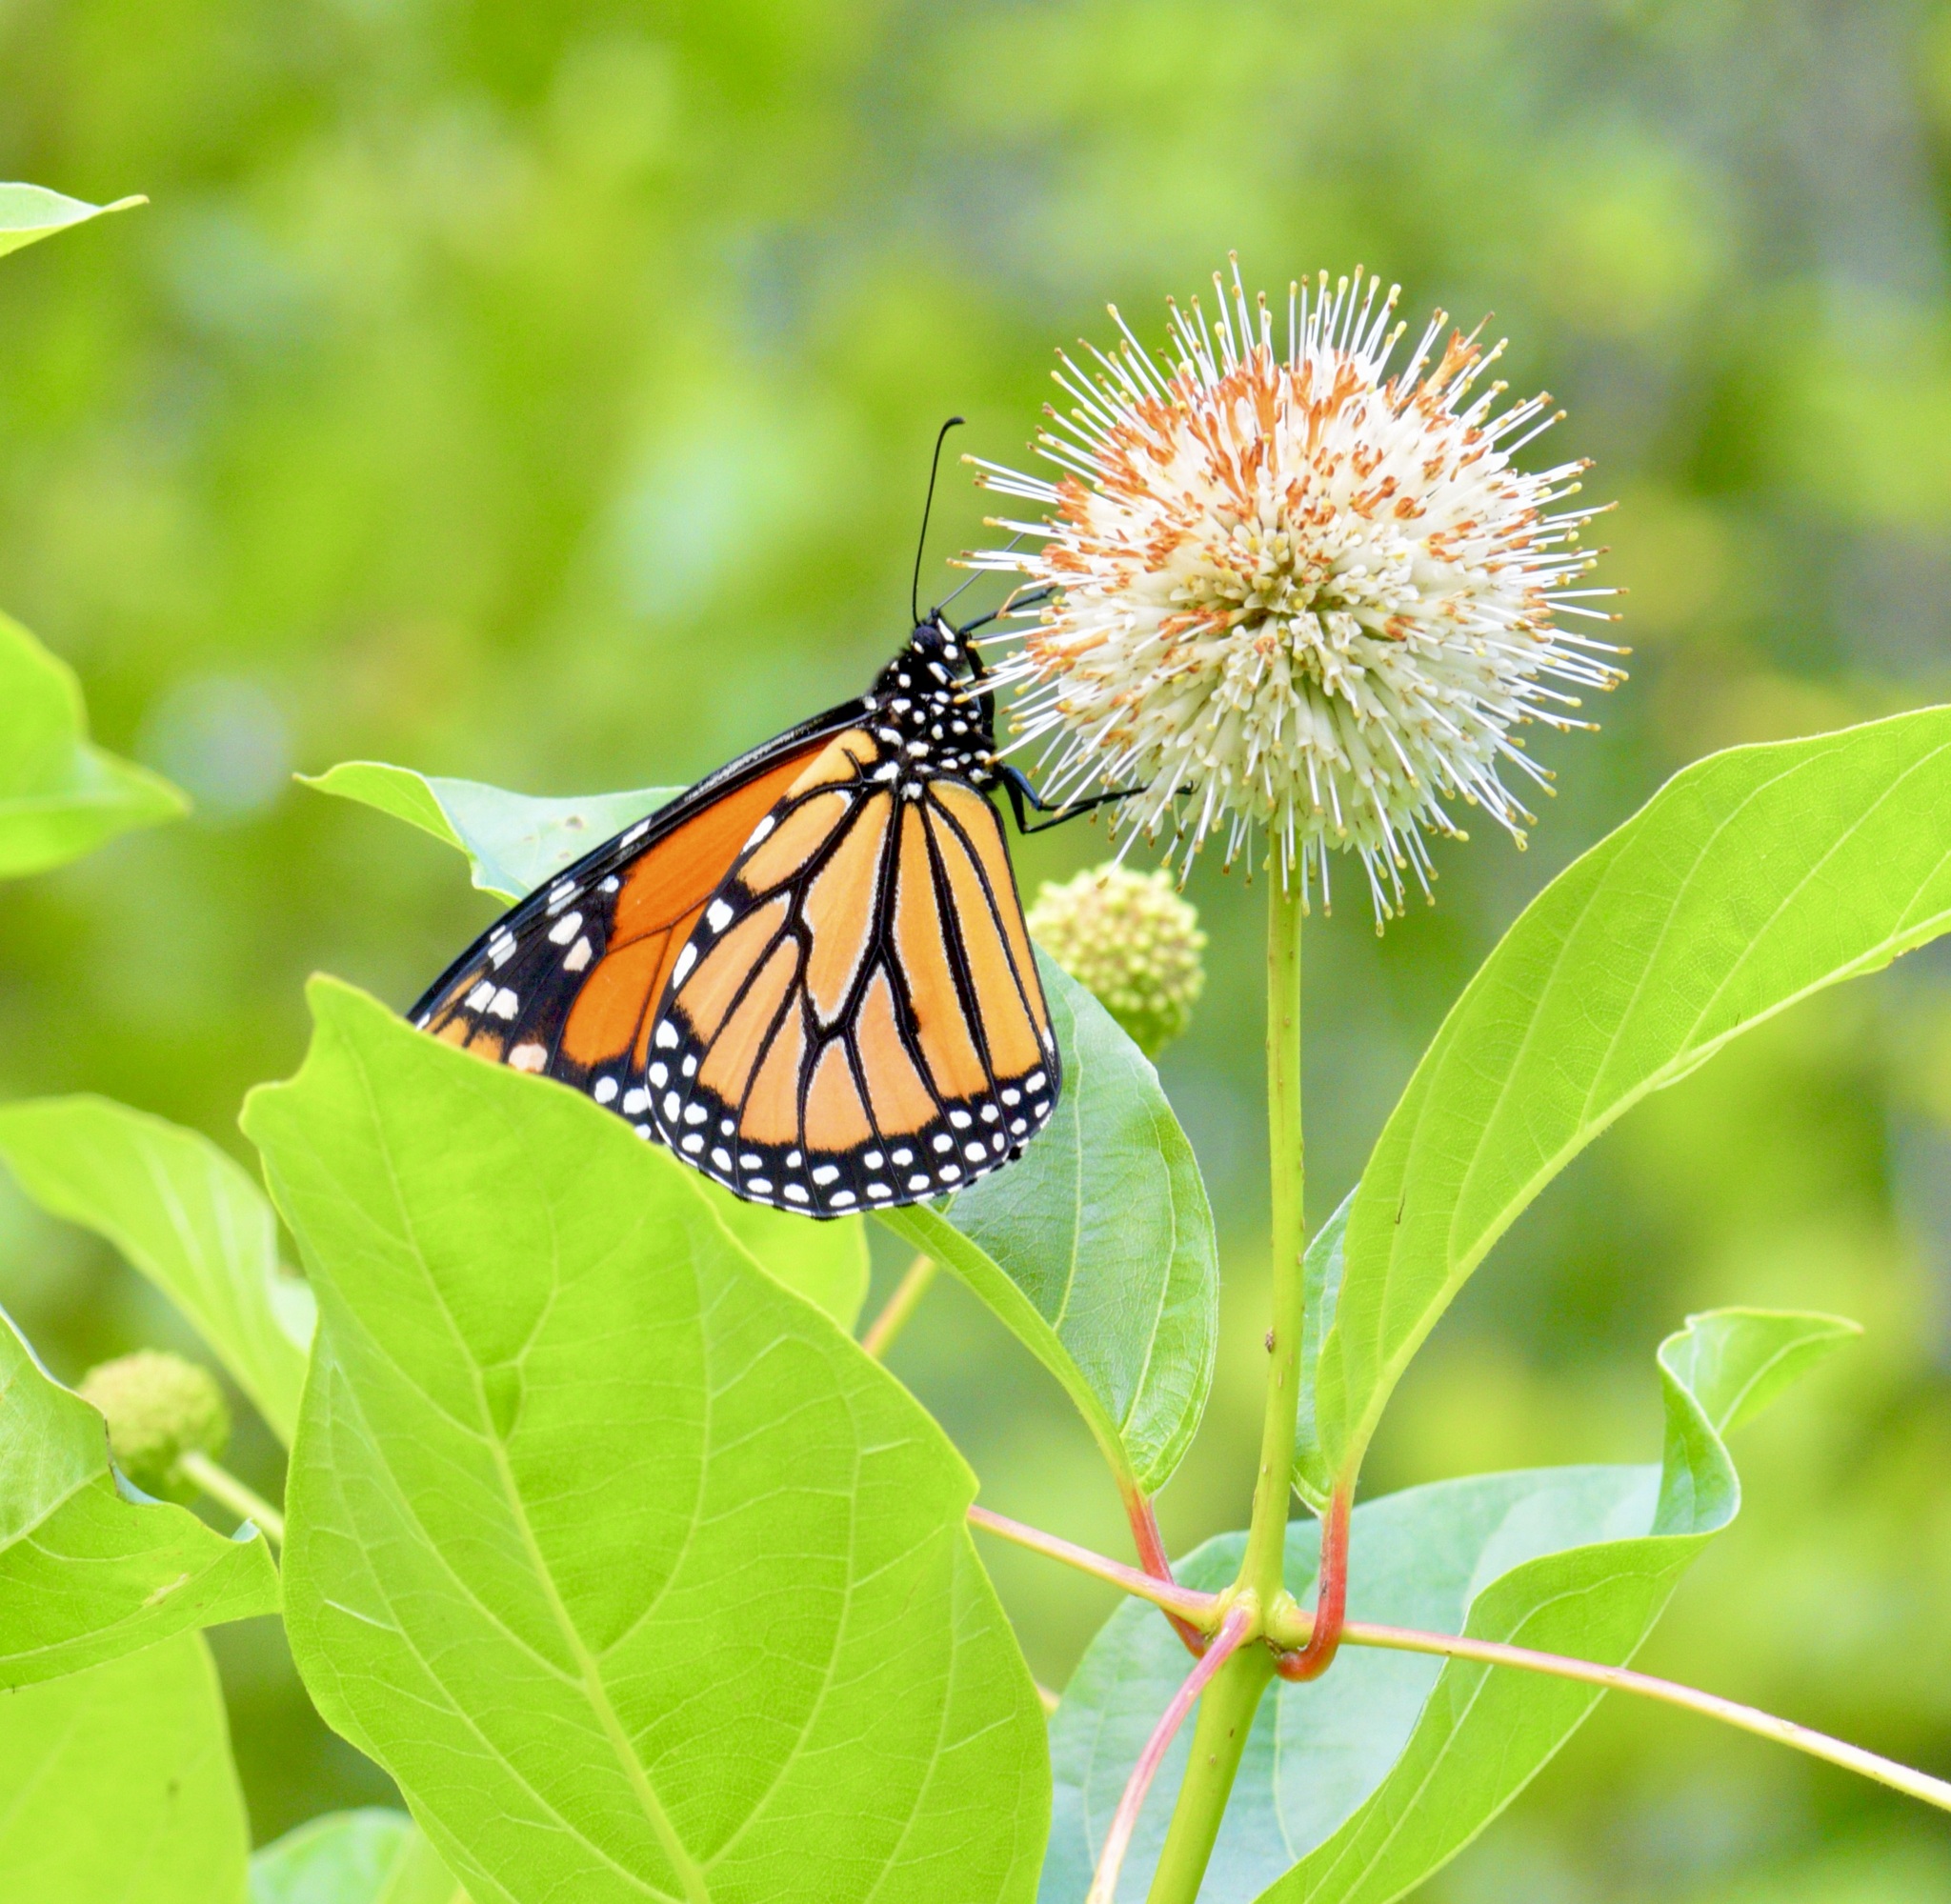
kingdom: Animalia
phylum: Arthropoda
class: Insecta
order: Lepidoptera
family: Nymphalidae
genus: Danaus
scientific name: Danaus plexippus
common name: Monarch
